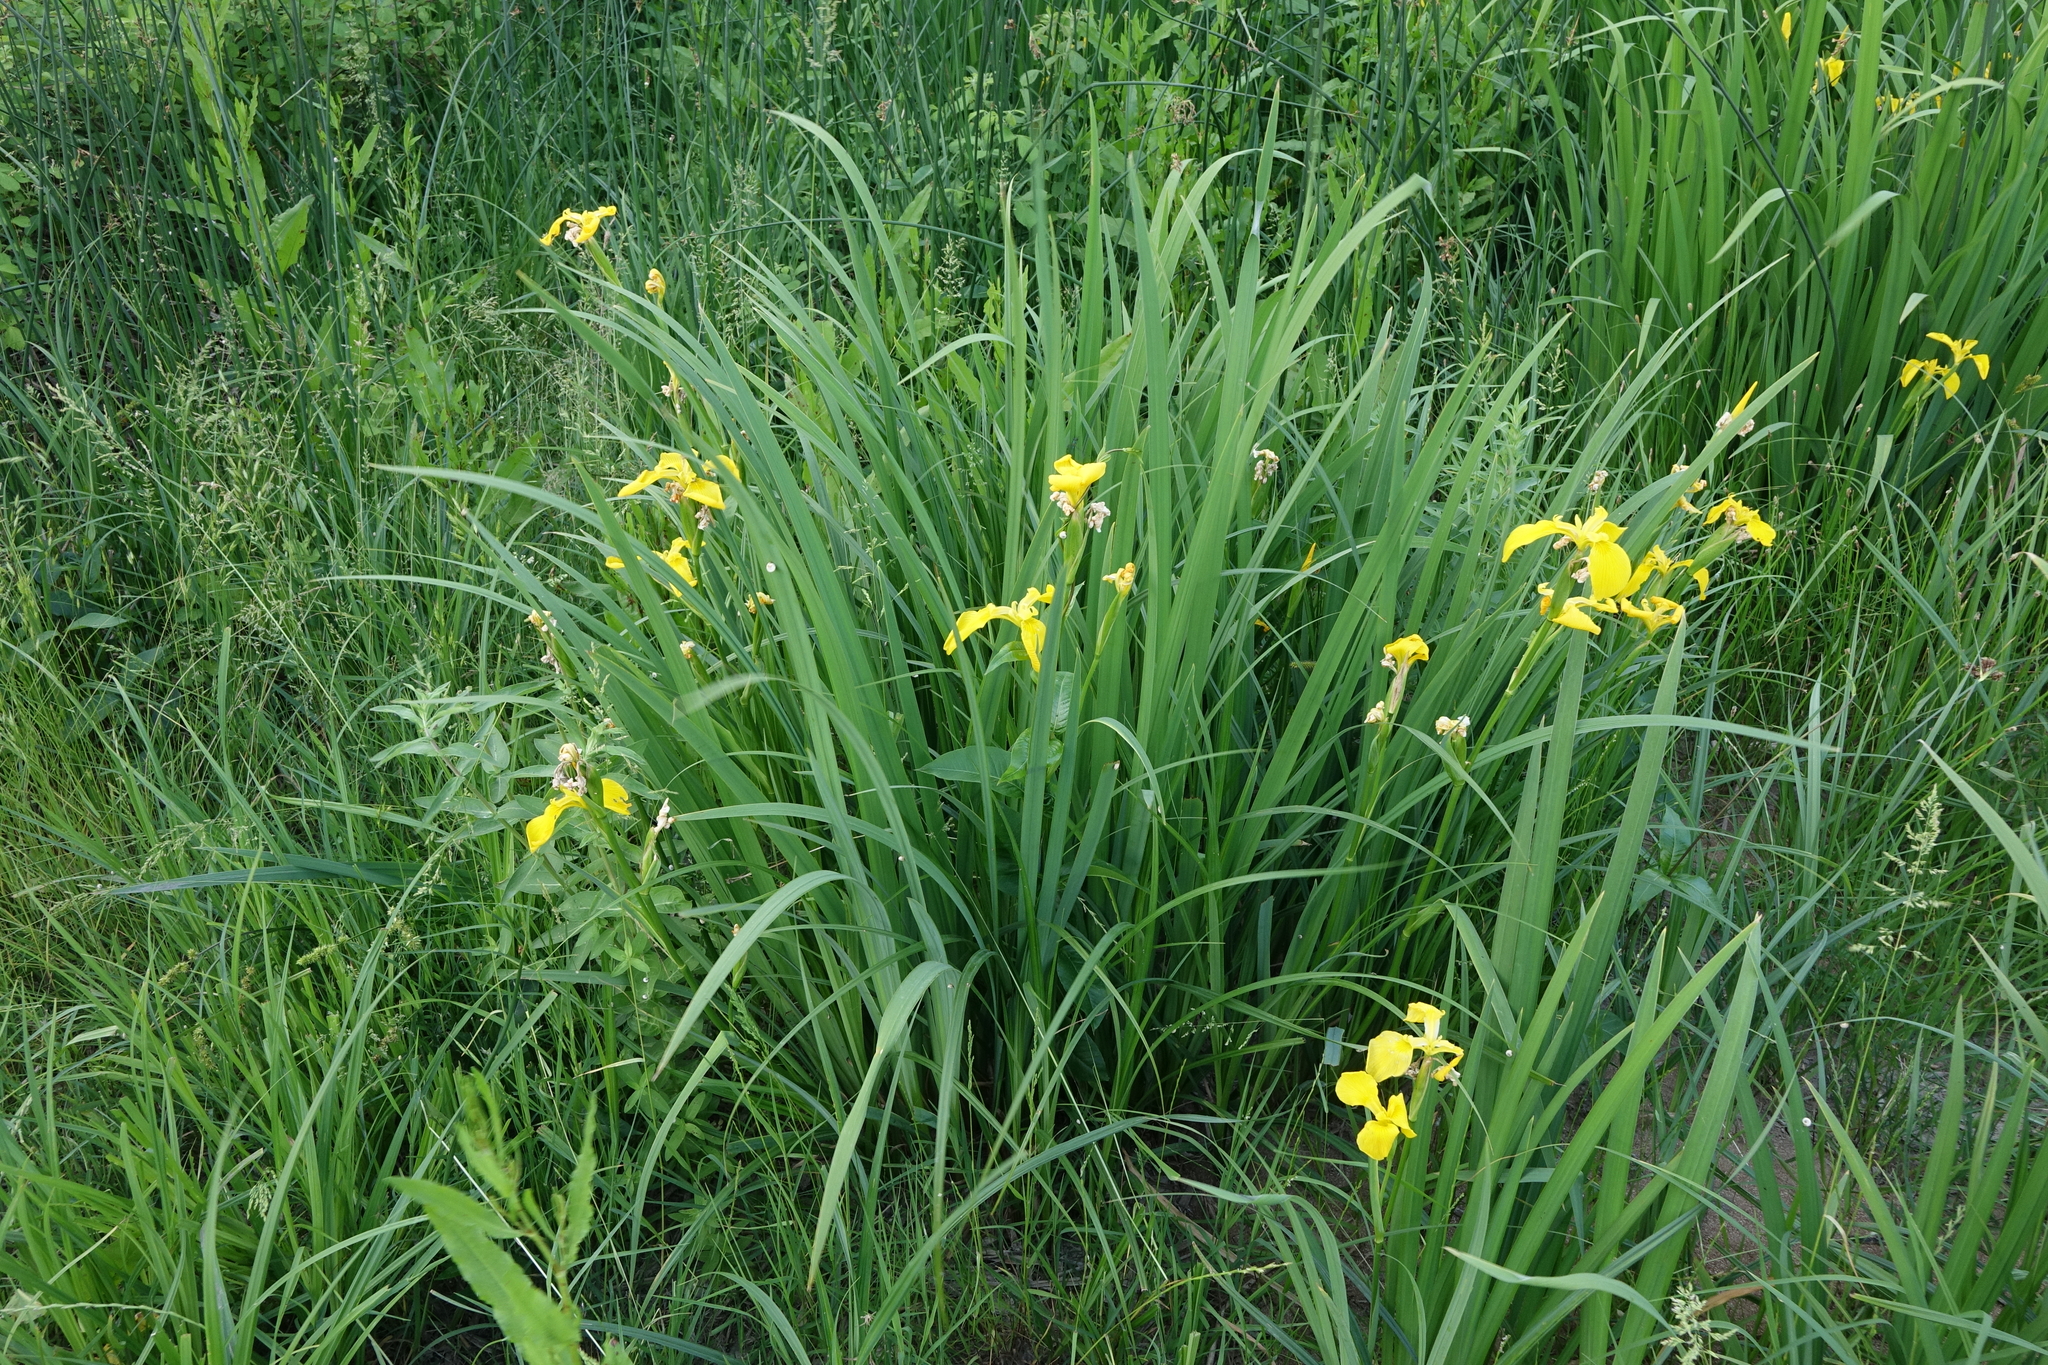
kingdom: Plantae
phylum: Tracheophyta
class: Liliopsida
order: Asparagales
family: Iridaceae
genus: Iris
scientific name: Iris pseudacorus
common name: Yellow flag
